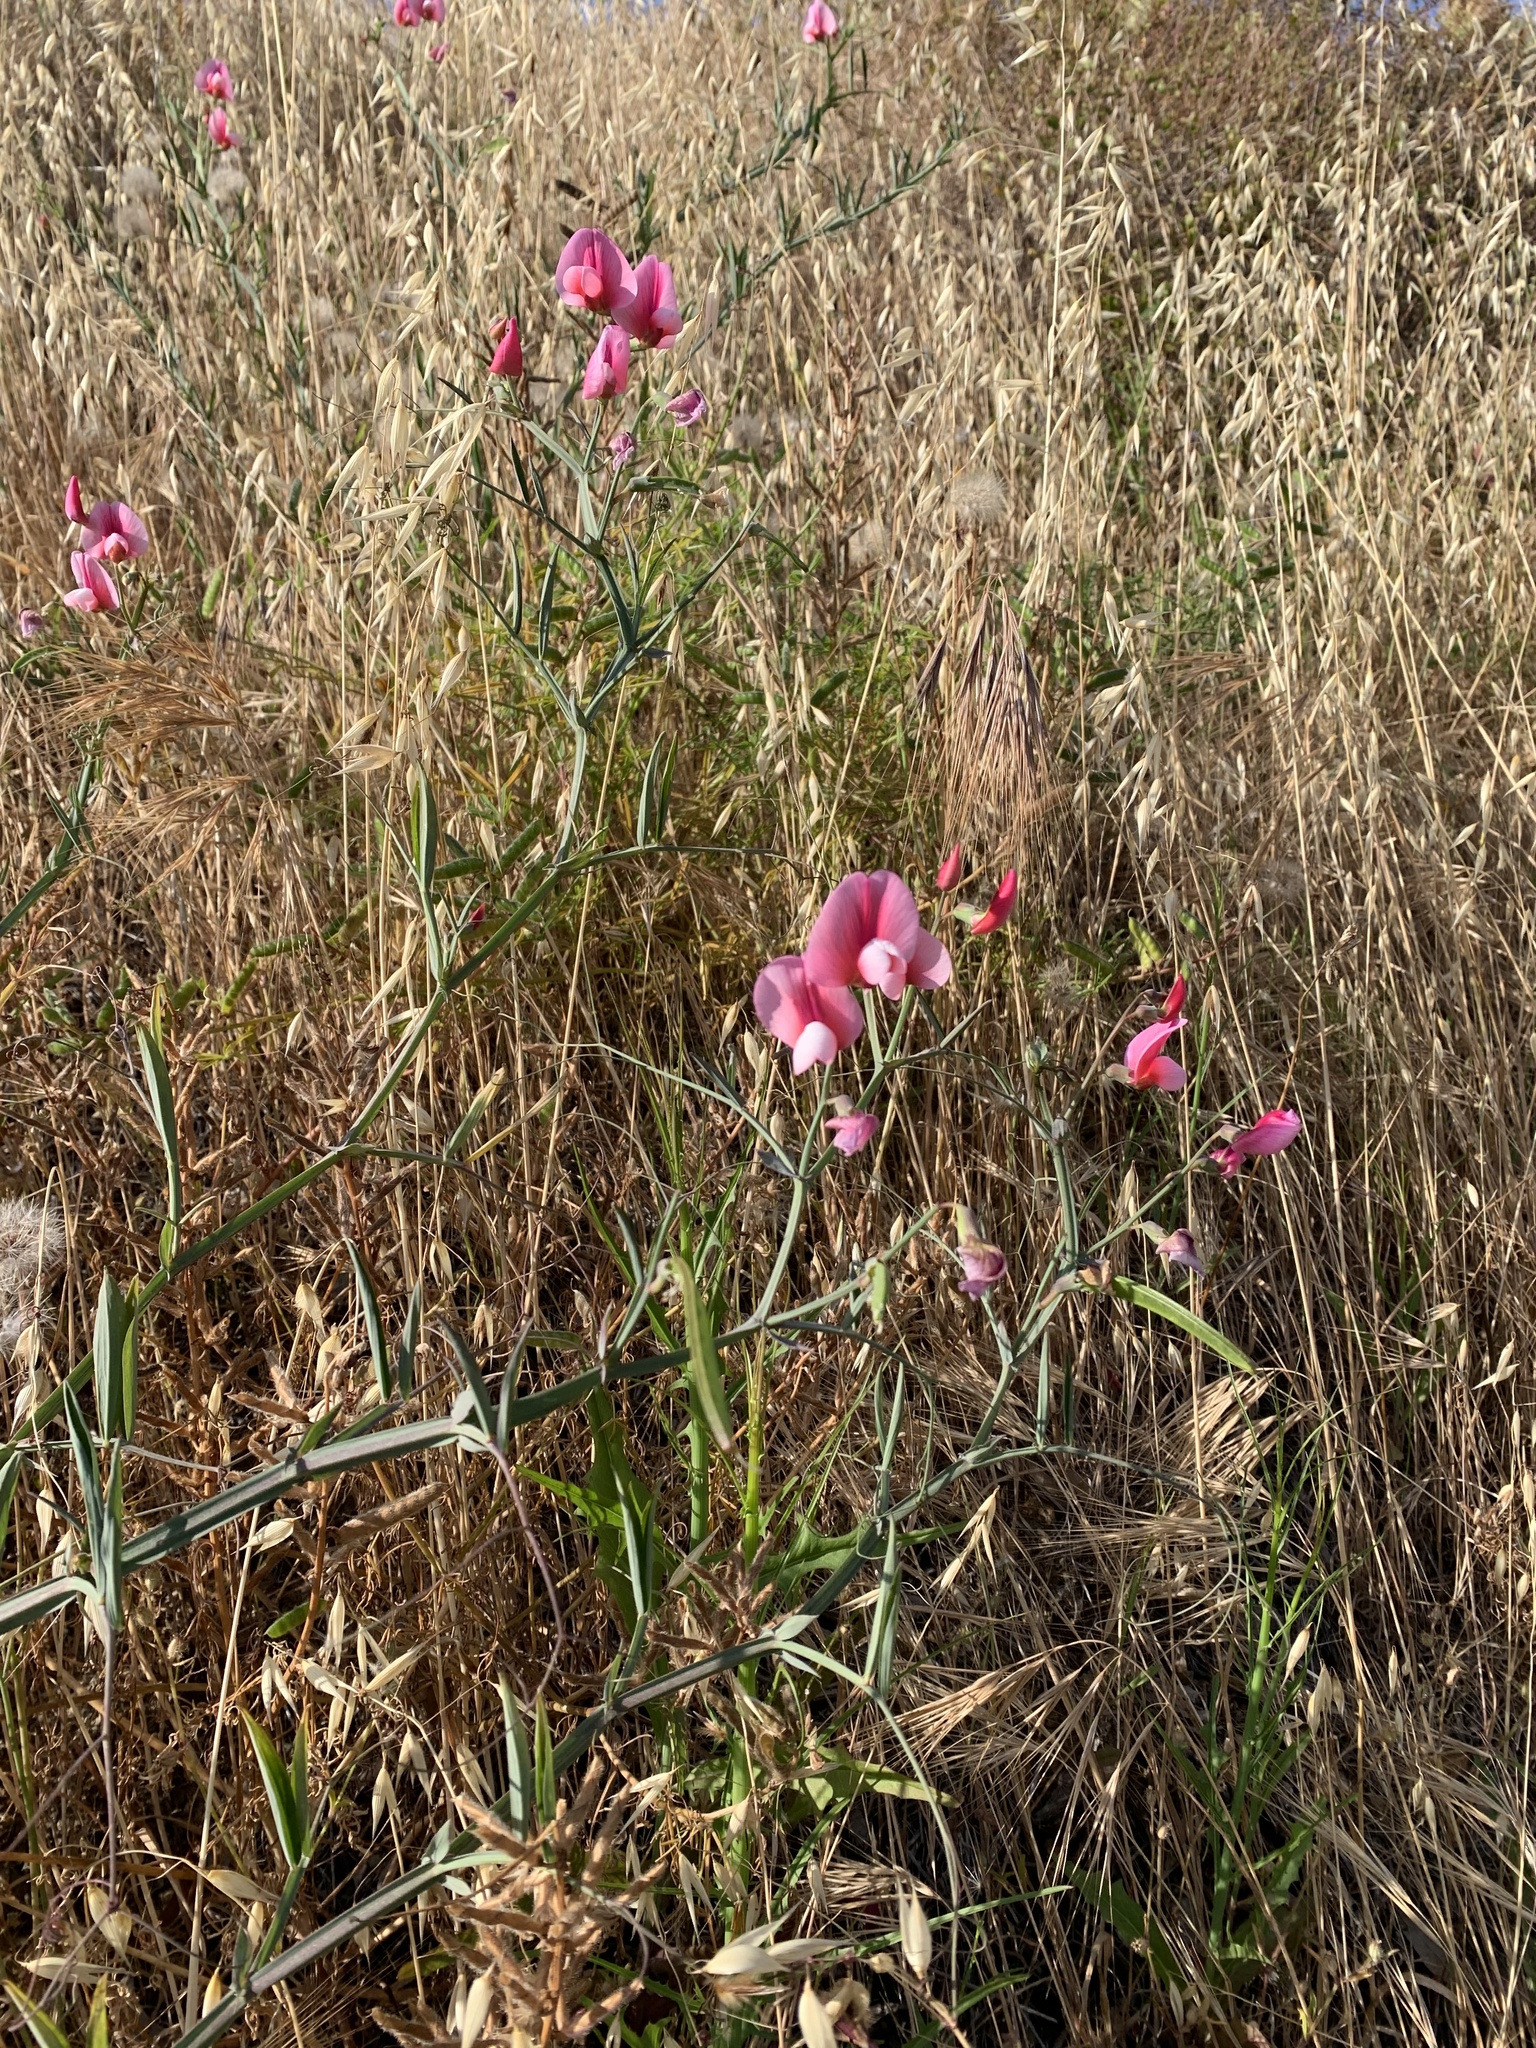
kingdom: Plantae
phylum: Tracheophyta
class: Magnoliopsida
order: Fabales
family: Fabaceae
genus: Lathyrus
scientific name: Lathyrus tingitanus
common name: Tangier pea
